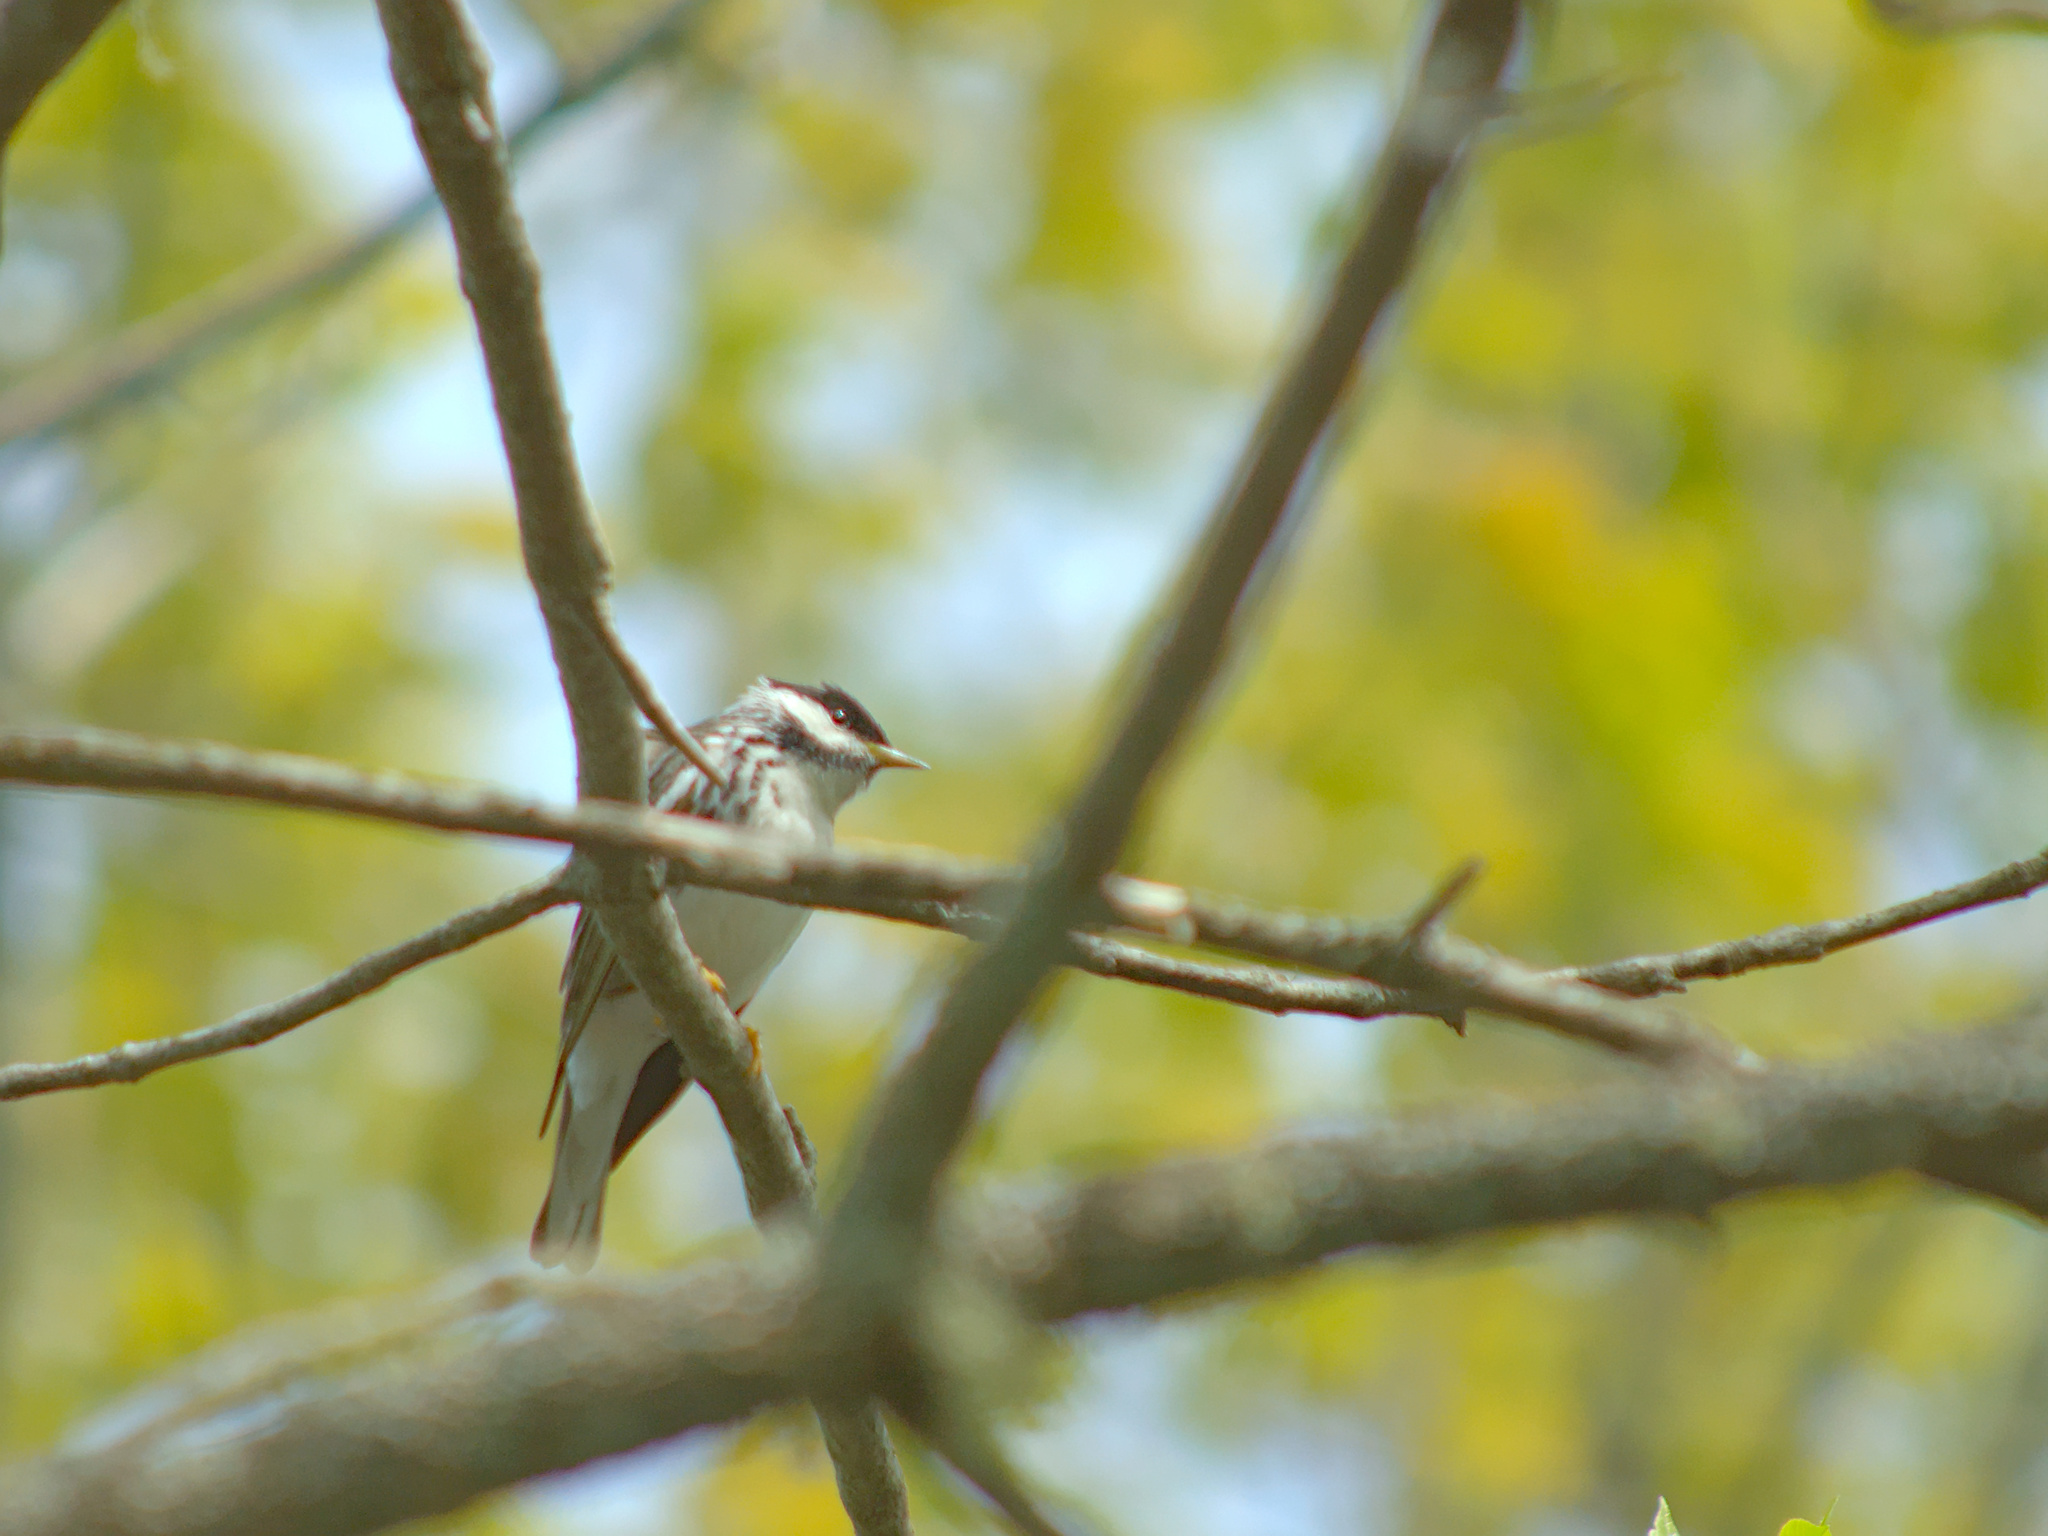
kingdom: Animalia
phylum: Chordata
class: Aves
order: Passeriformes
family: Parulidae
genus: Setophaga
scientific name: Setophaga striata
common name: Blackpoll warbler
